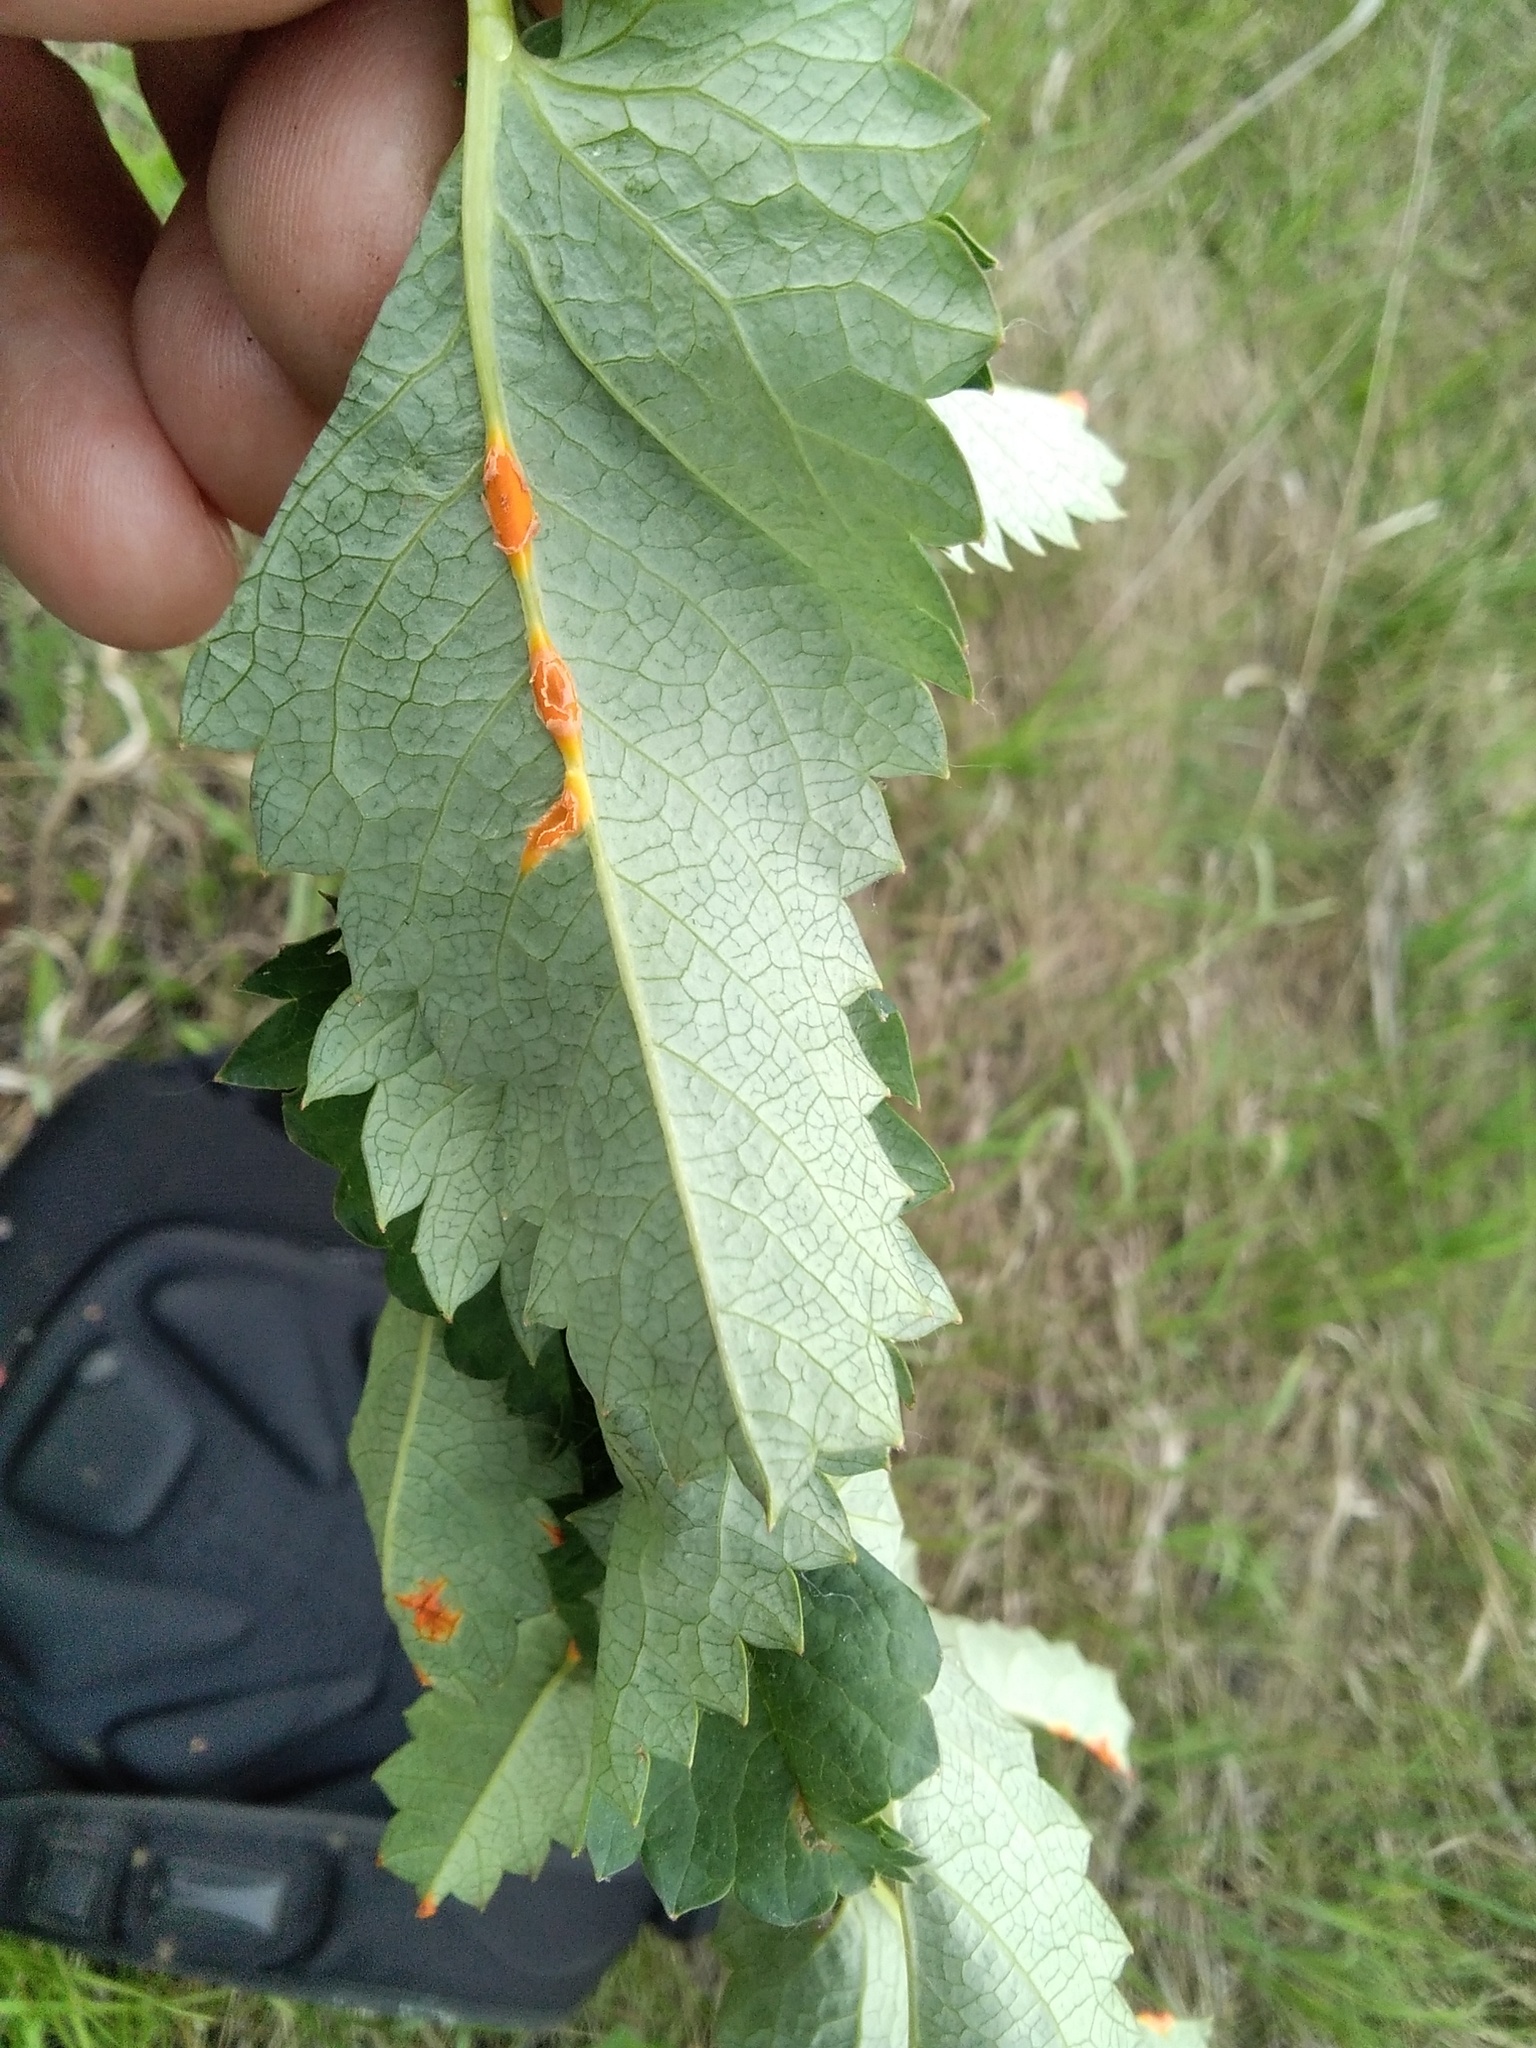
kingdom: Fungi
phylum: Basidiomycota
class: Pucciniomycetes
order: Pucciniales
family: Phragmidiaceae
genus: Phragmidium
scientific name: Phragmidium sanguisorbae
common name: Salad burnet rust
